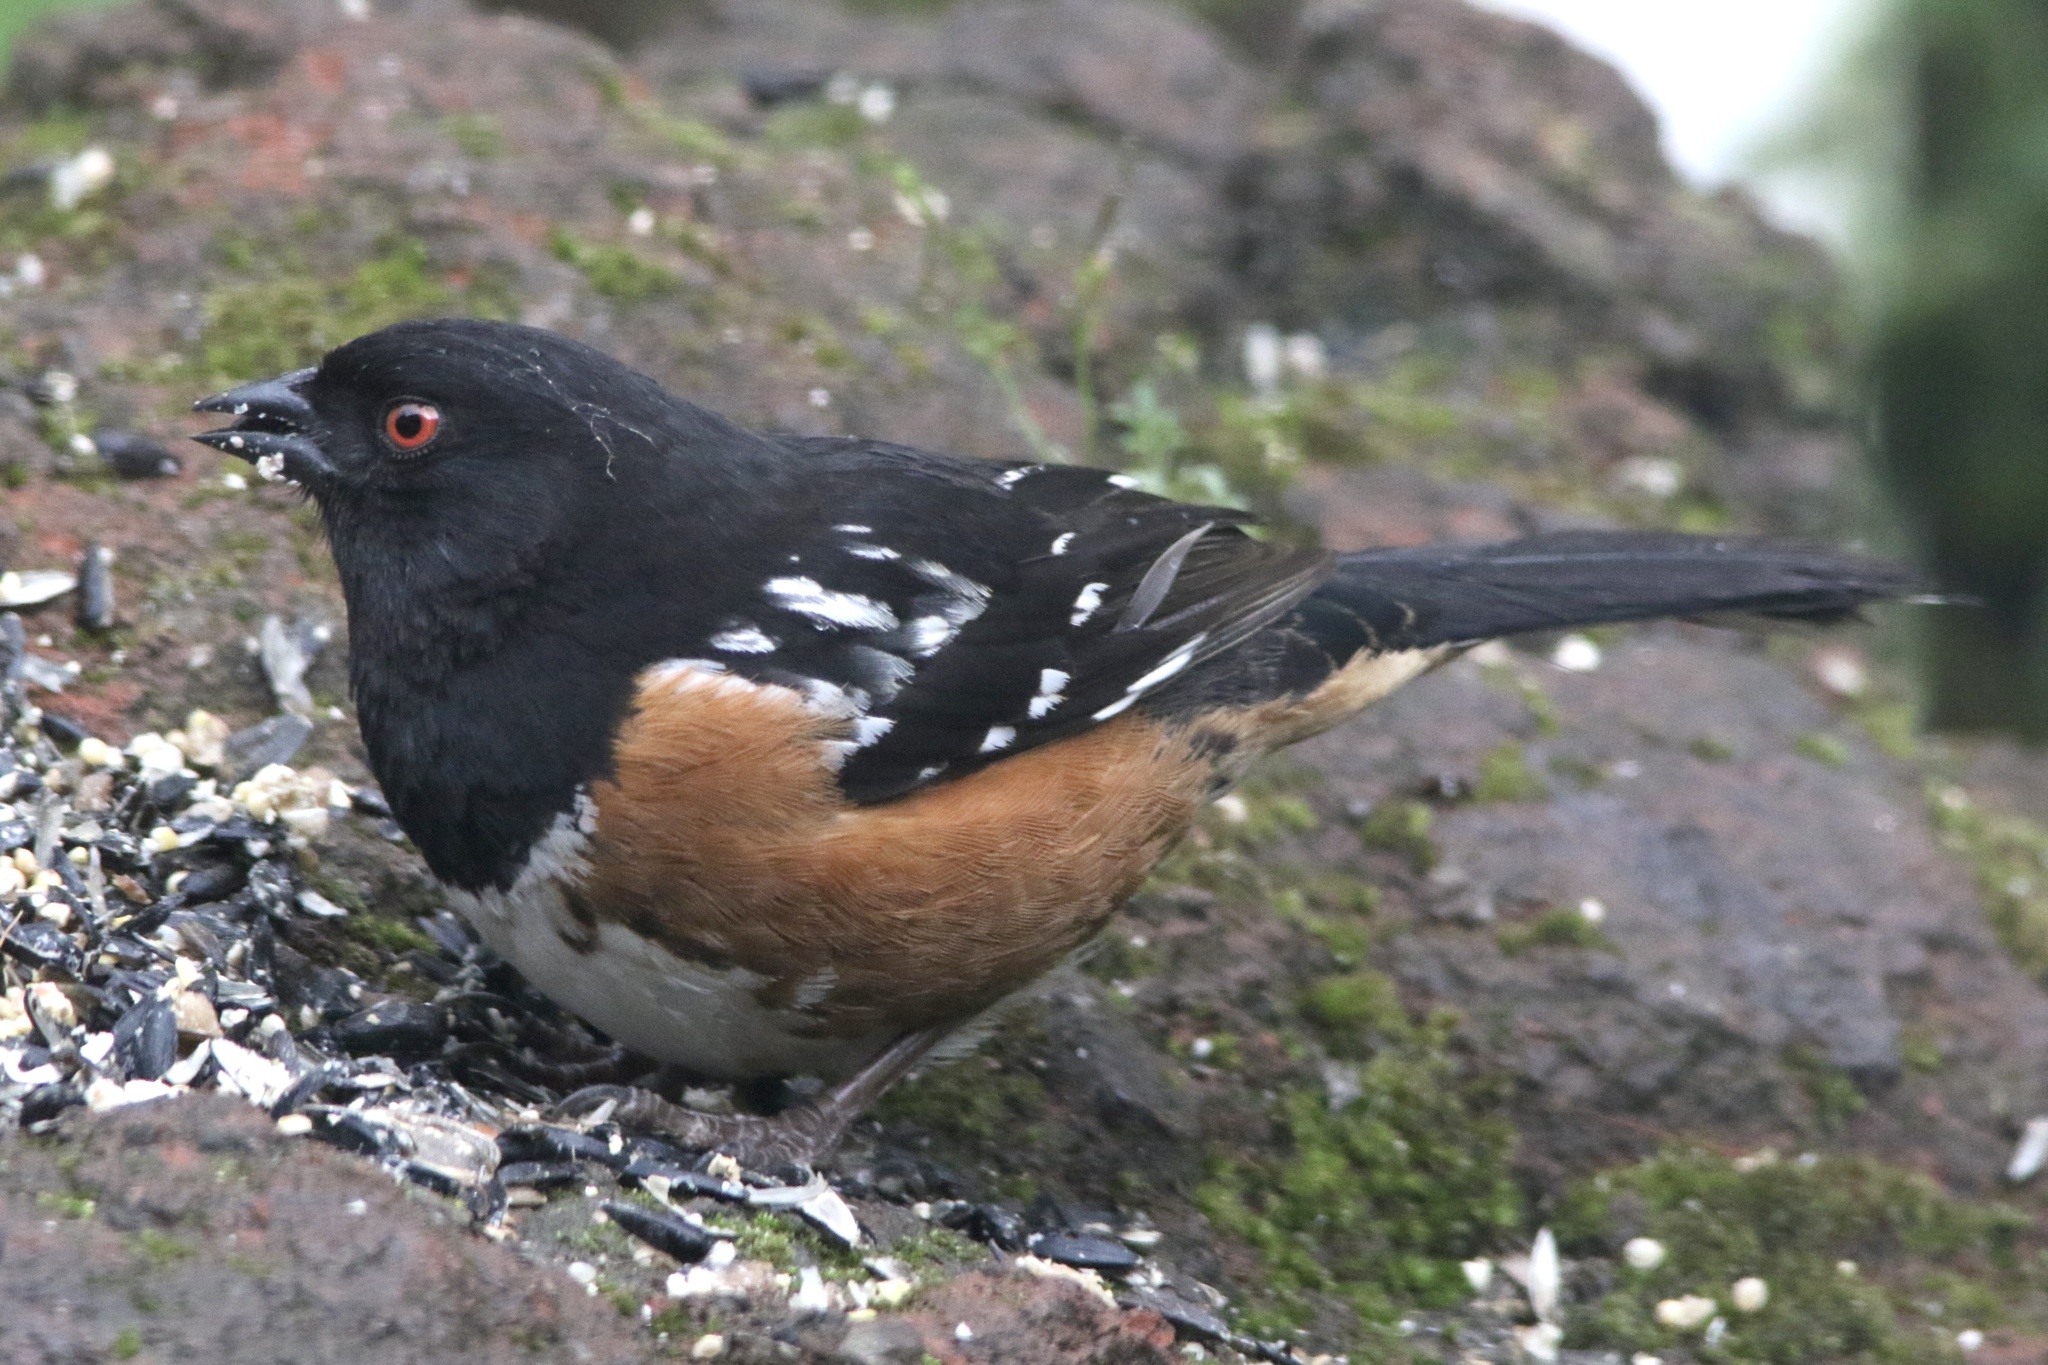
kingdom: Animalia
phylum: Chordata
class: Aves
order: Passeriformes
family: Passerellidae
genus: Pipilo
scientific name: Pipilo maculatus
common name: Spotted towhee
